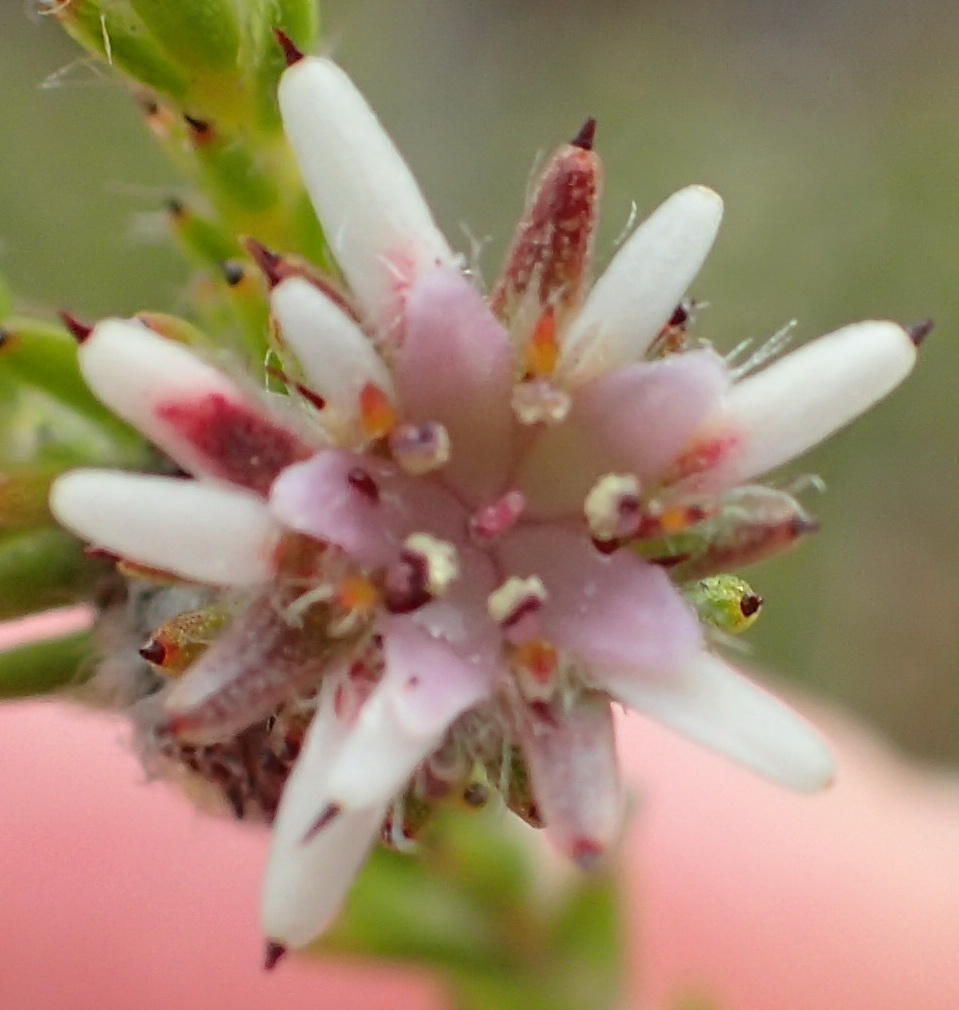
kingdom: Plantae
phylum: Tracheophyta
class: Magnoliopsida
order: Bruniales
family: Bruniaceae
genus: Staavia
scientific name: Staavia radiata
